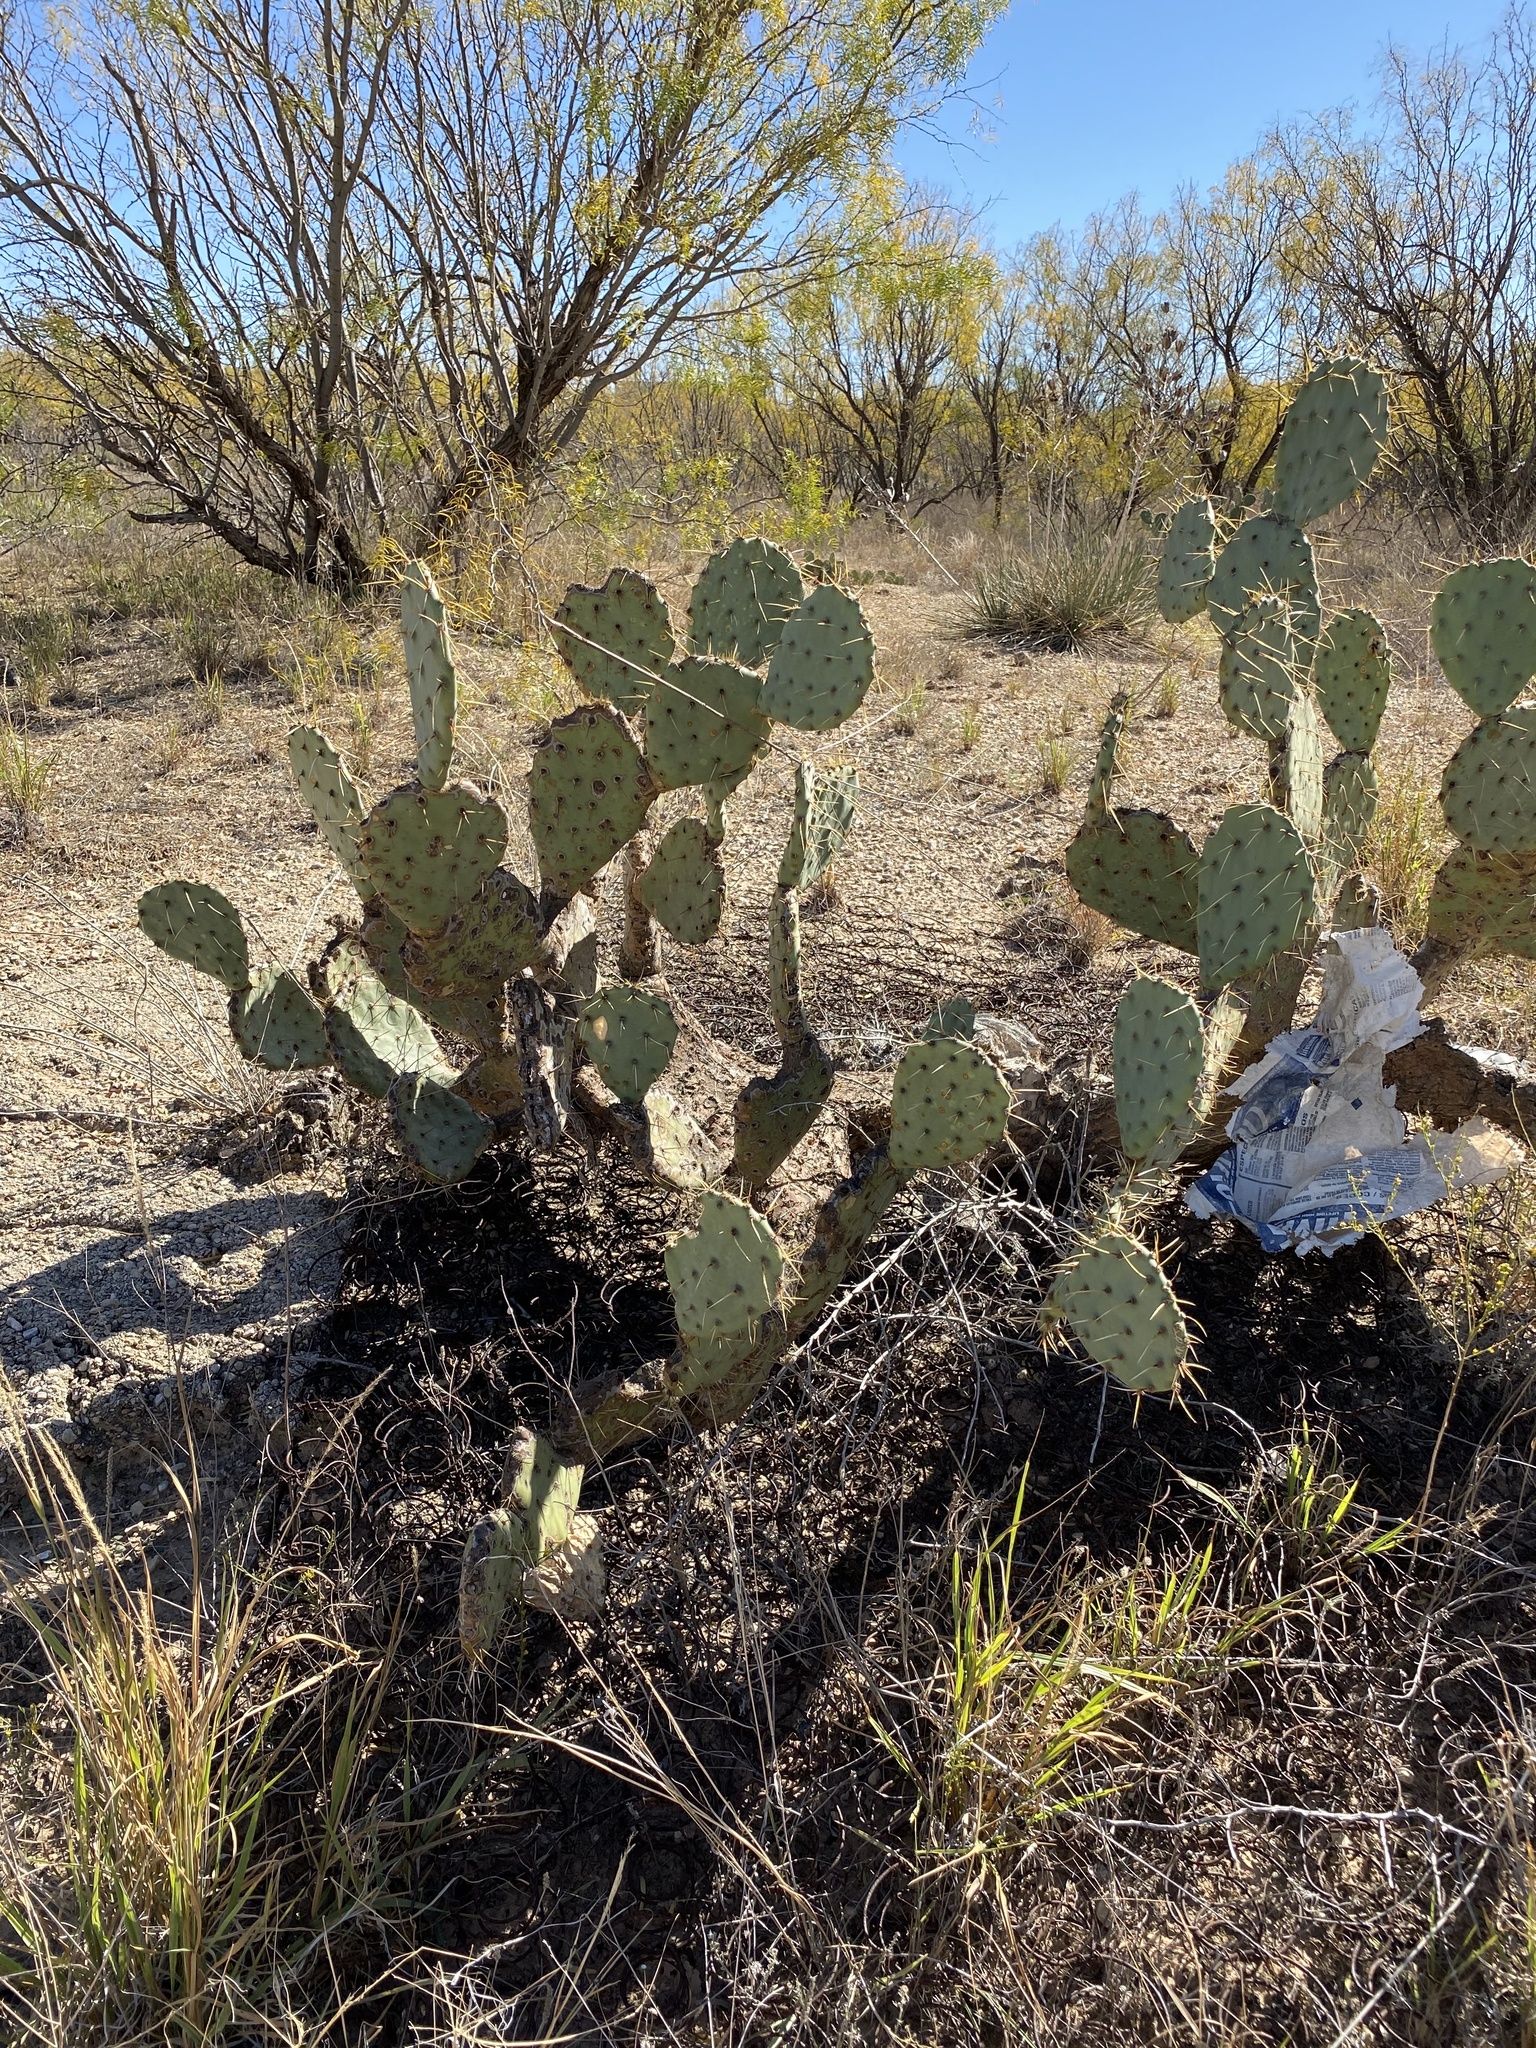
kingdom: Plantae
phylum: Tracheophyta
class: Magnoliopsida
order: Caryophyllales
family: Cactaceae
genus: Opuntia
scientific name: Opuntia engelmannii
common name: Cactus-apple
